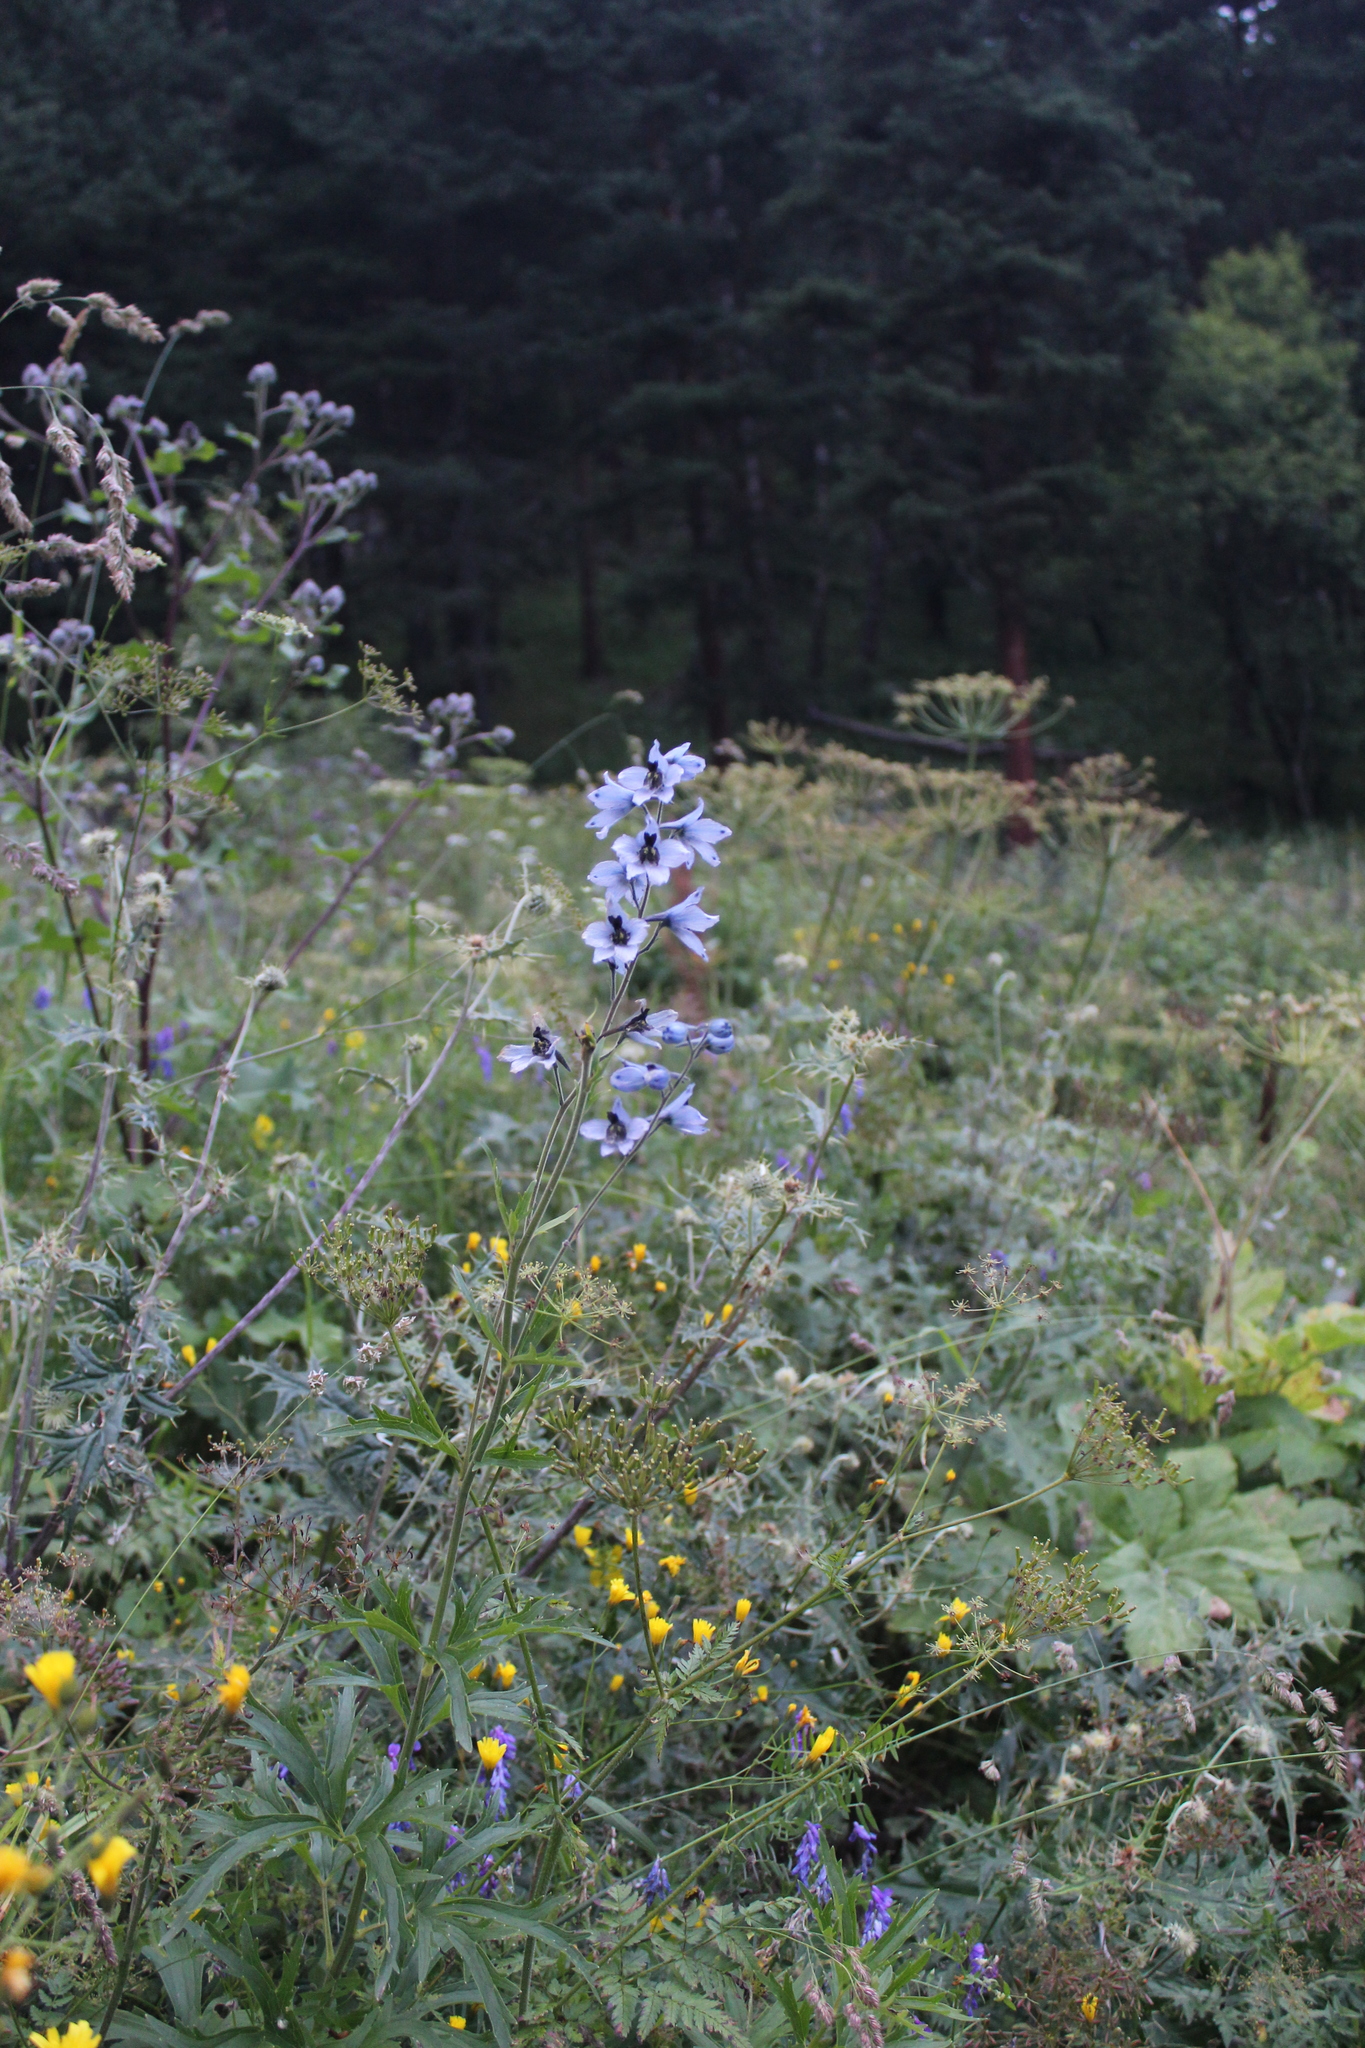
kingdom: Plantae
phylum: Tracheophyta
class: Magnoliopsida
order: Ranunculales
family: Ranunculaceae
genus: Delphinium
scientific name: Delphinium dasycarpum
